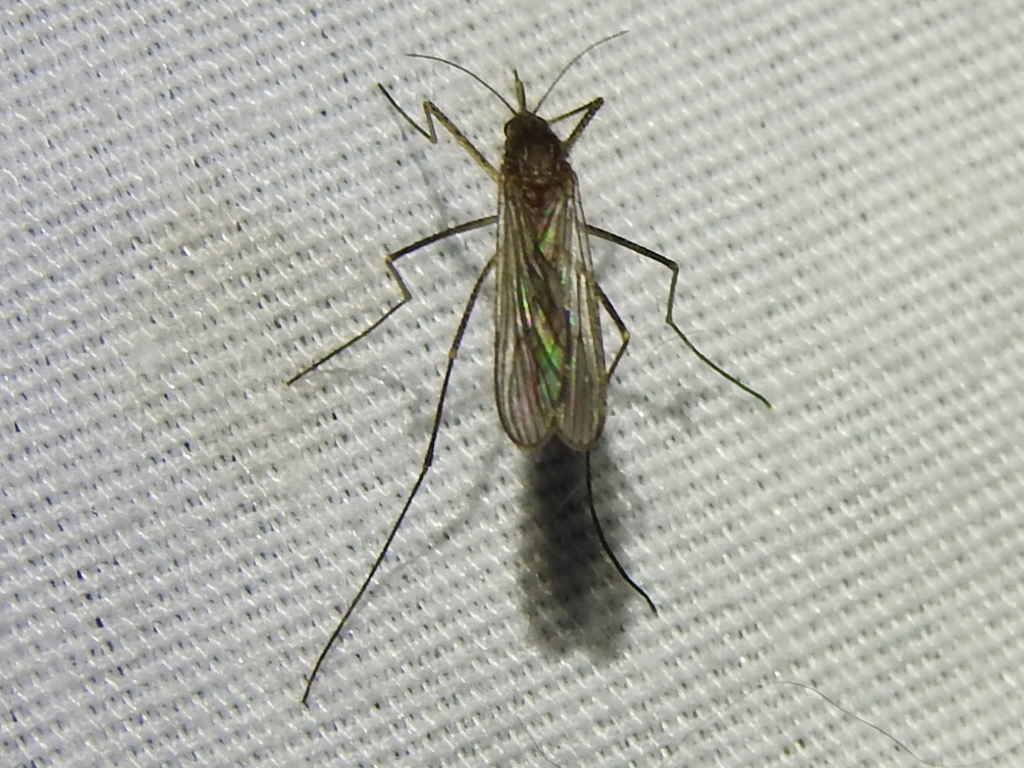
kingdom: Animalia
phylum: Arthropoda
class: Insecta
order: Diptera
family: Culicidae
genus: Culiseta
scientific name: Culiseta inornata
